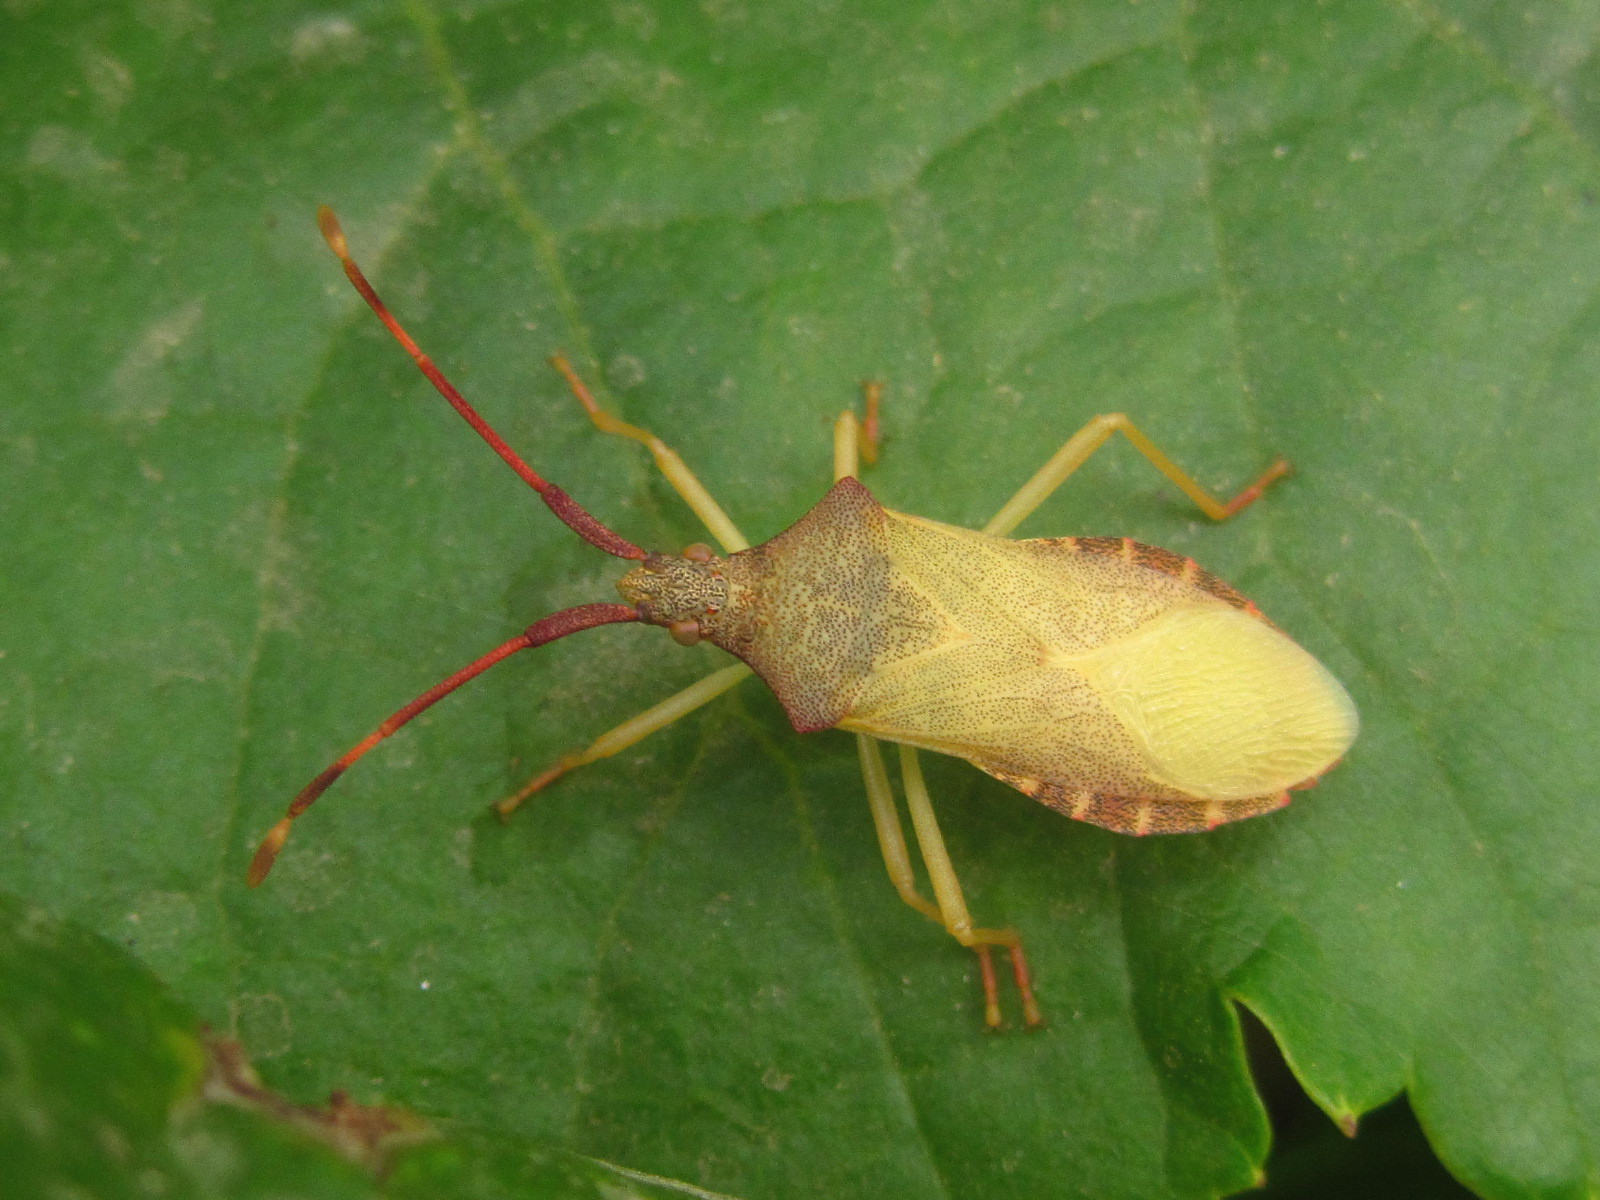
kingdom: Animalia
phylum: Arthropoda
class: Insecta
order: Hemiptera
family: Coreidae
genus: Gonocerus
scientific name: Gonocerus acuteangulatus
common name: Box bug
